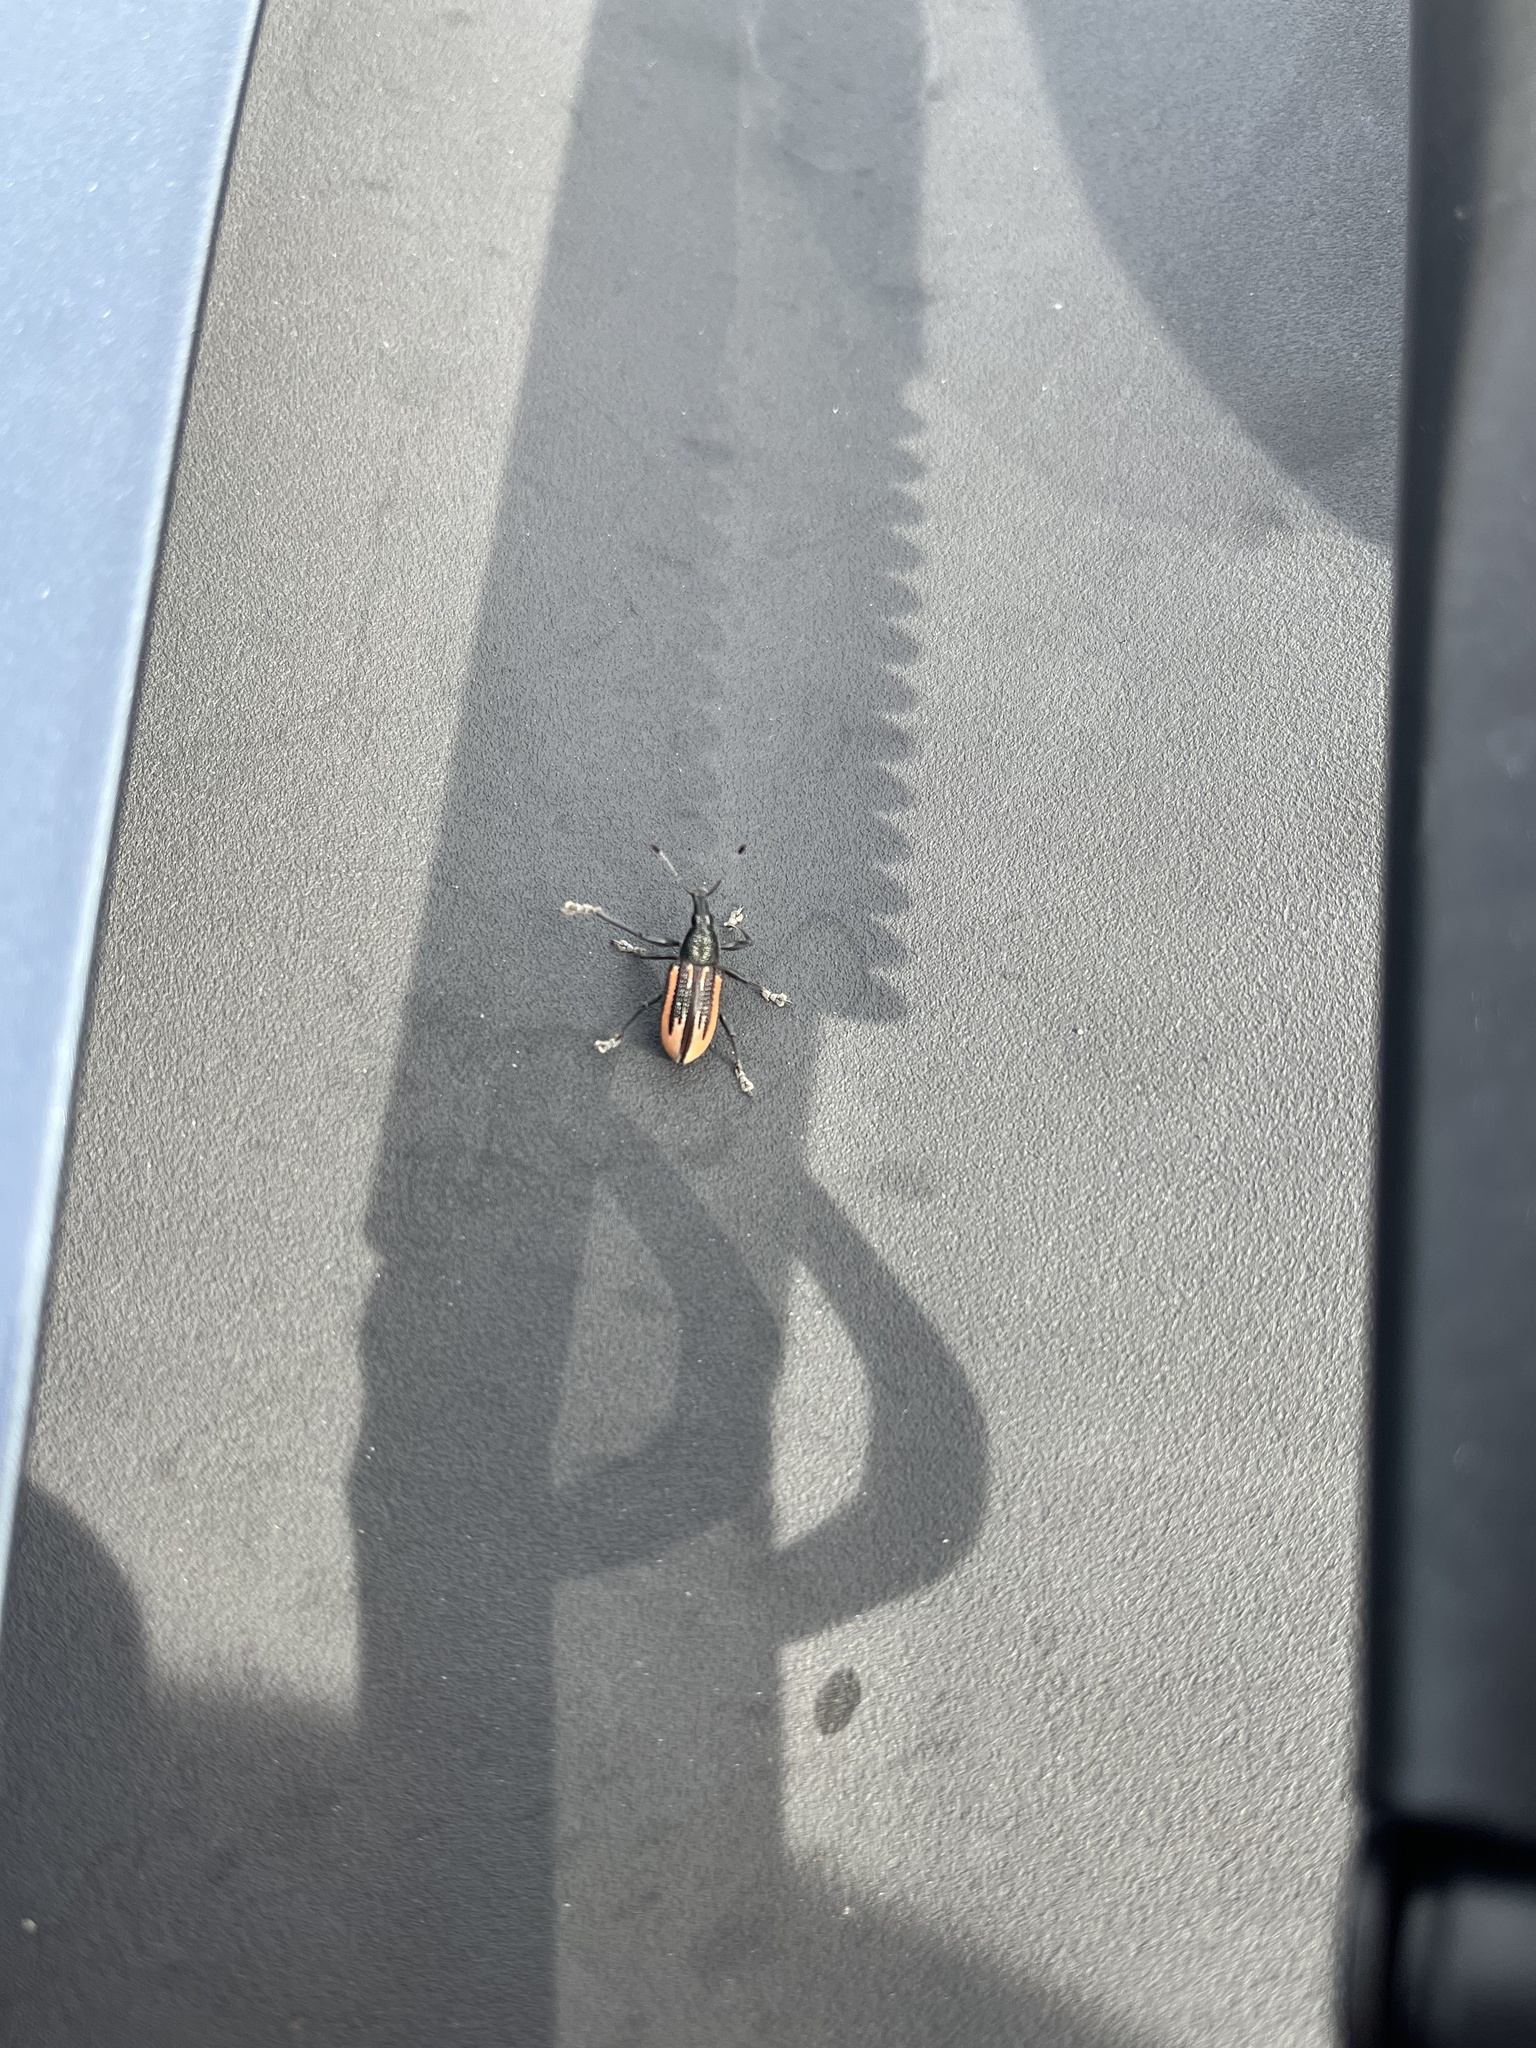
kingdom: Animalia
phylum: Arthropoda
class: Insecta
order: Coleoptera
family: Curculionidae
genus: Diaprepes
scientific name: Diaprepes abbreviatus
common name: Root weevil
